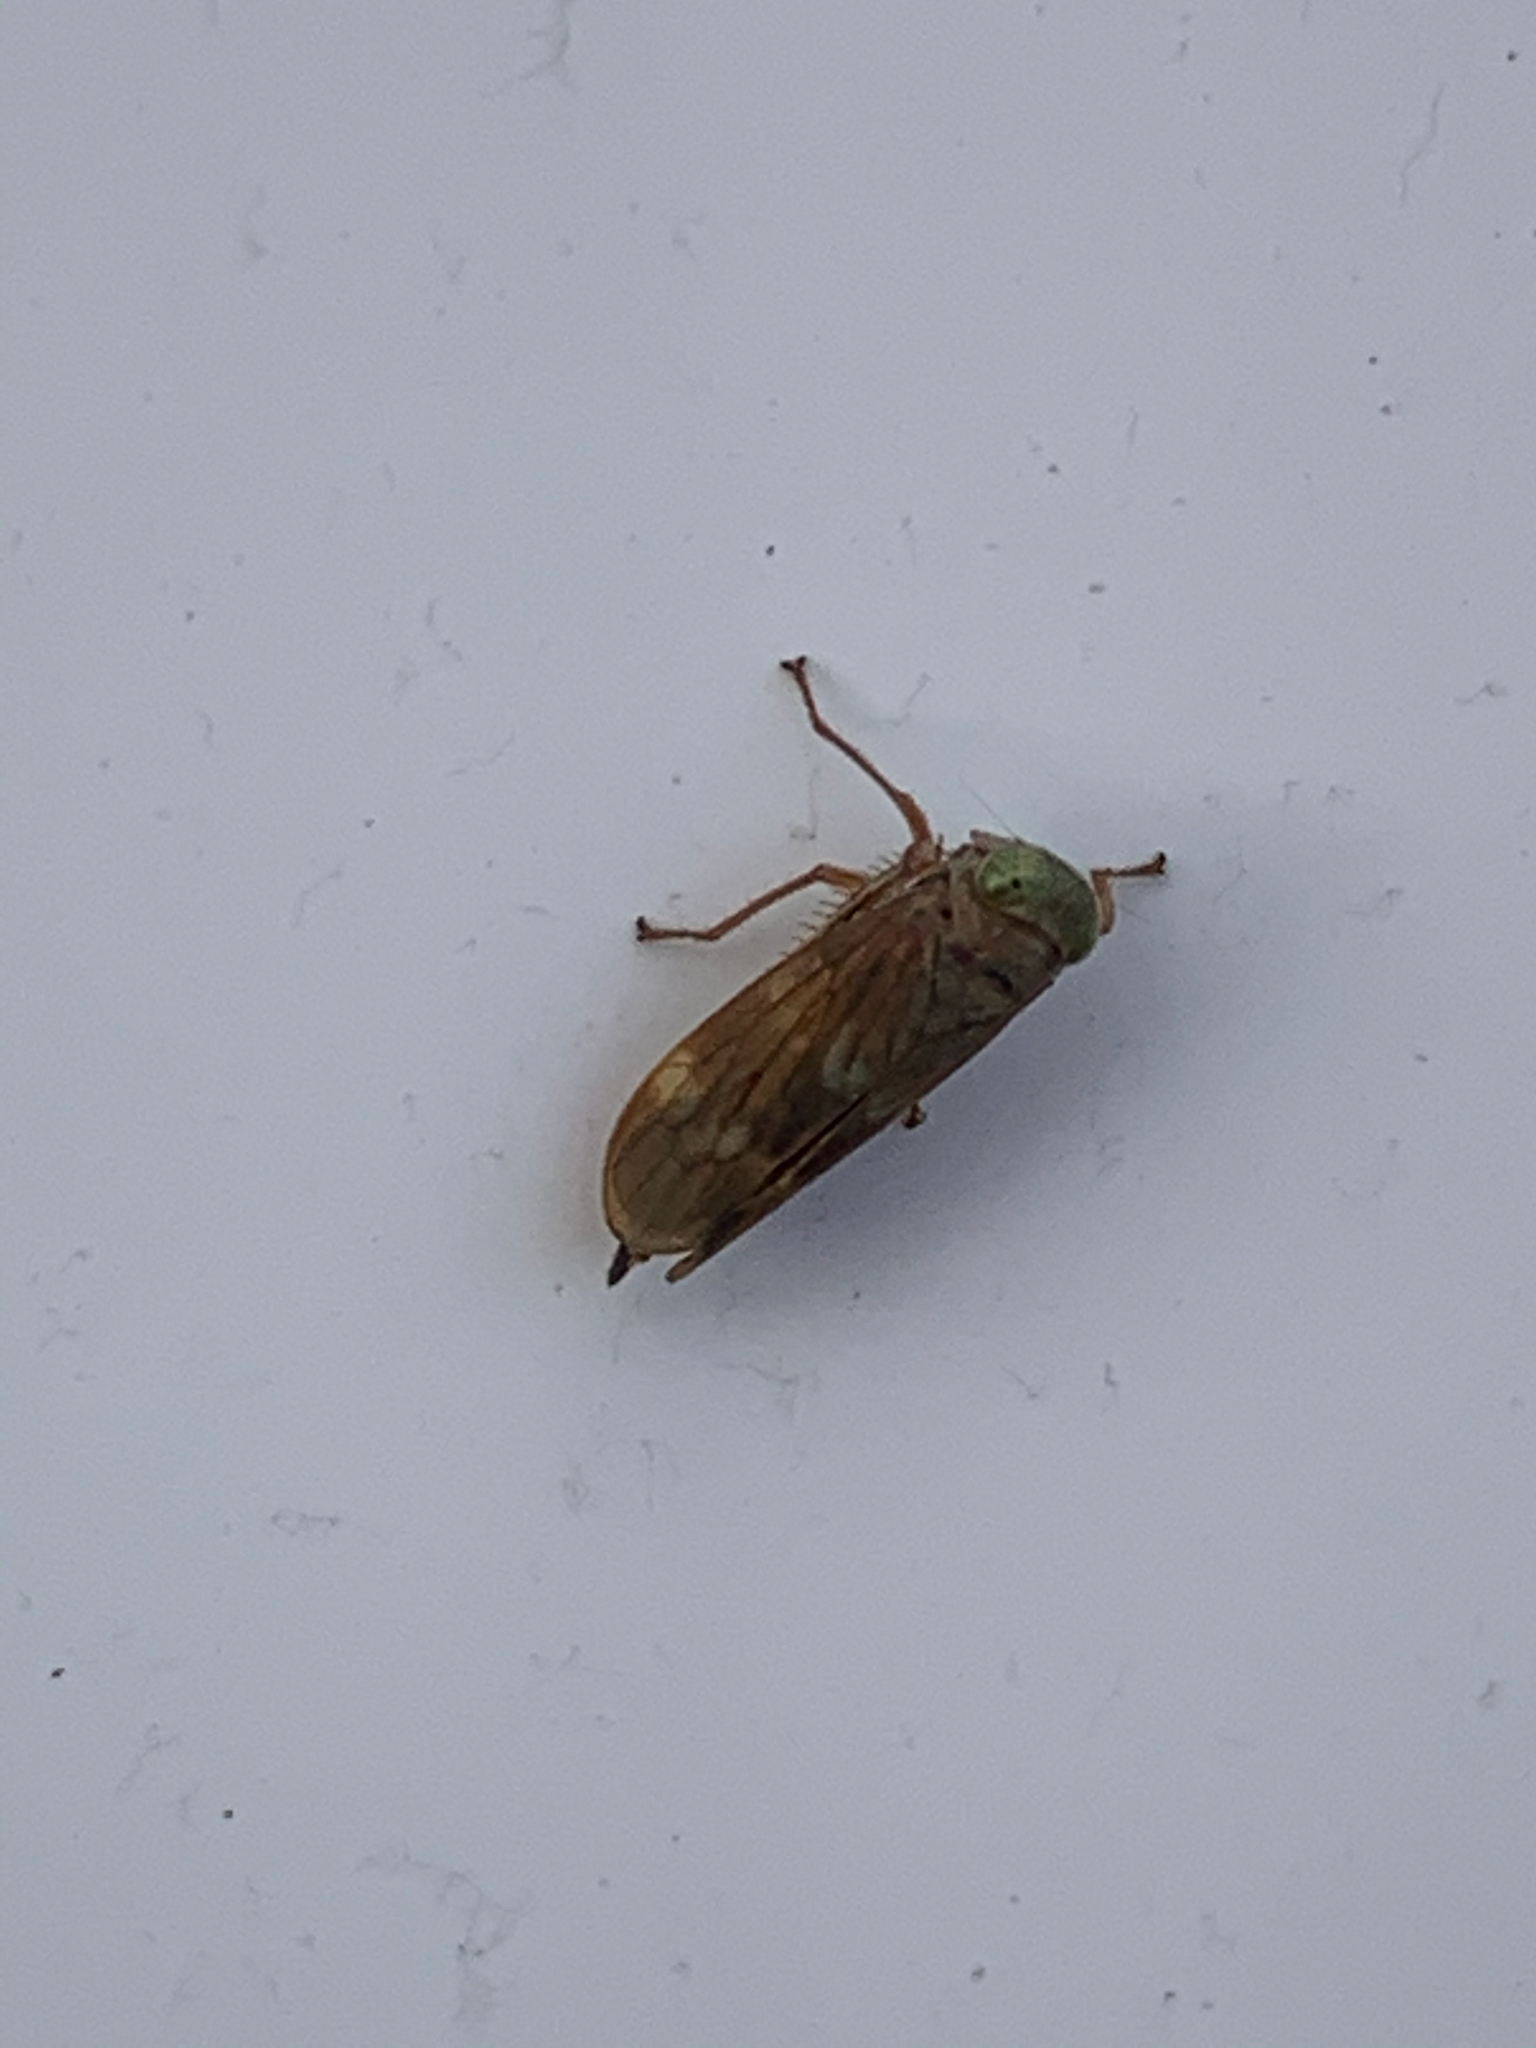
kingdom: Animalia
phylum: Arthropoda
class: Insecta
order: Hemiptera
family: Cicadellidae
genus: Jikradia
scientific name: Jikradia olitoria
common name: Coppery leafhopper
